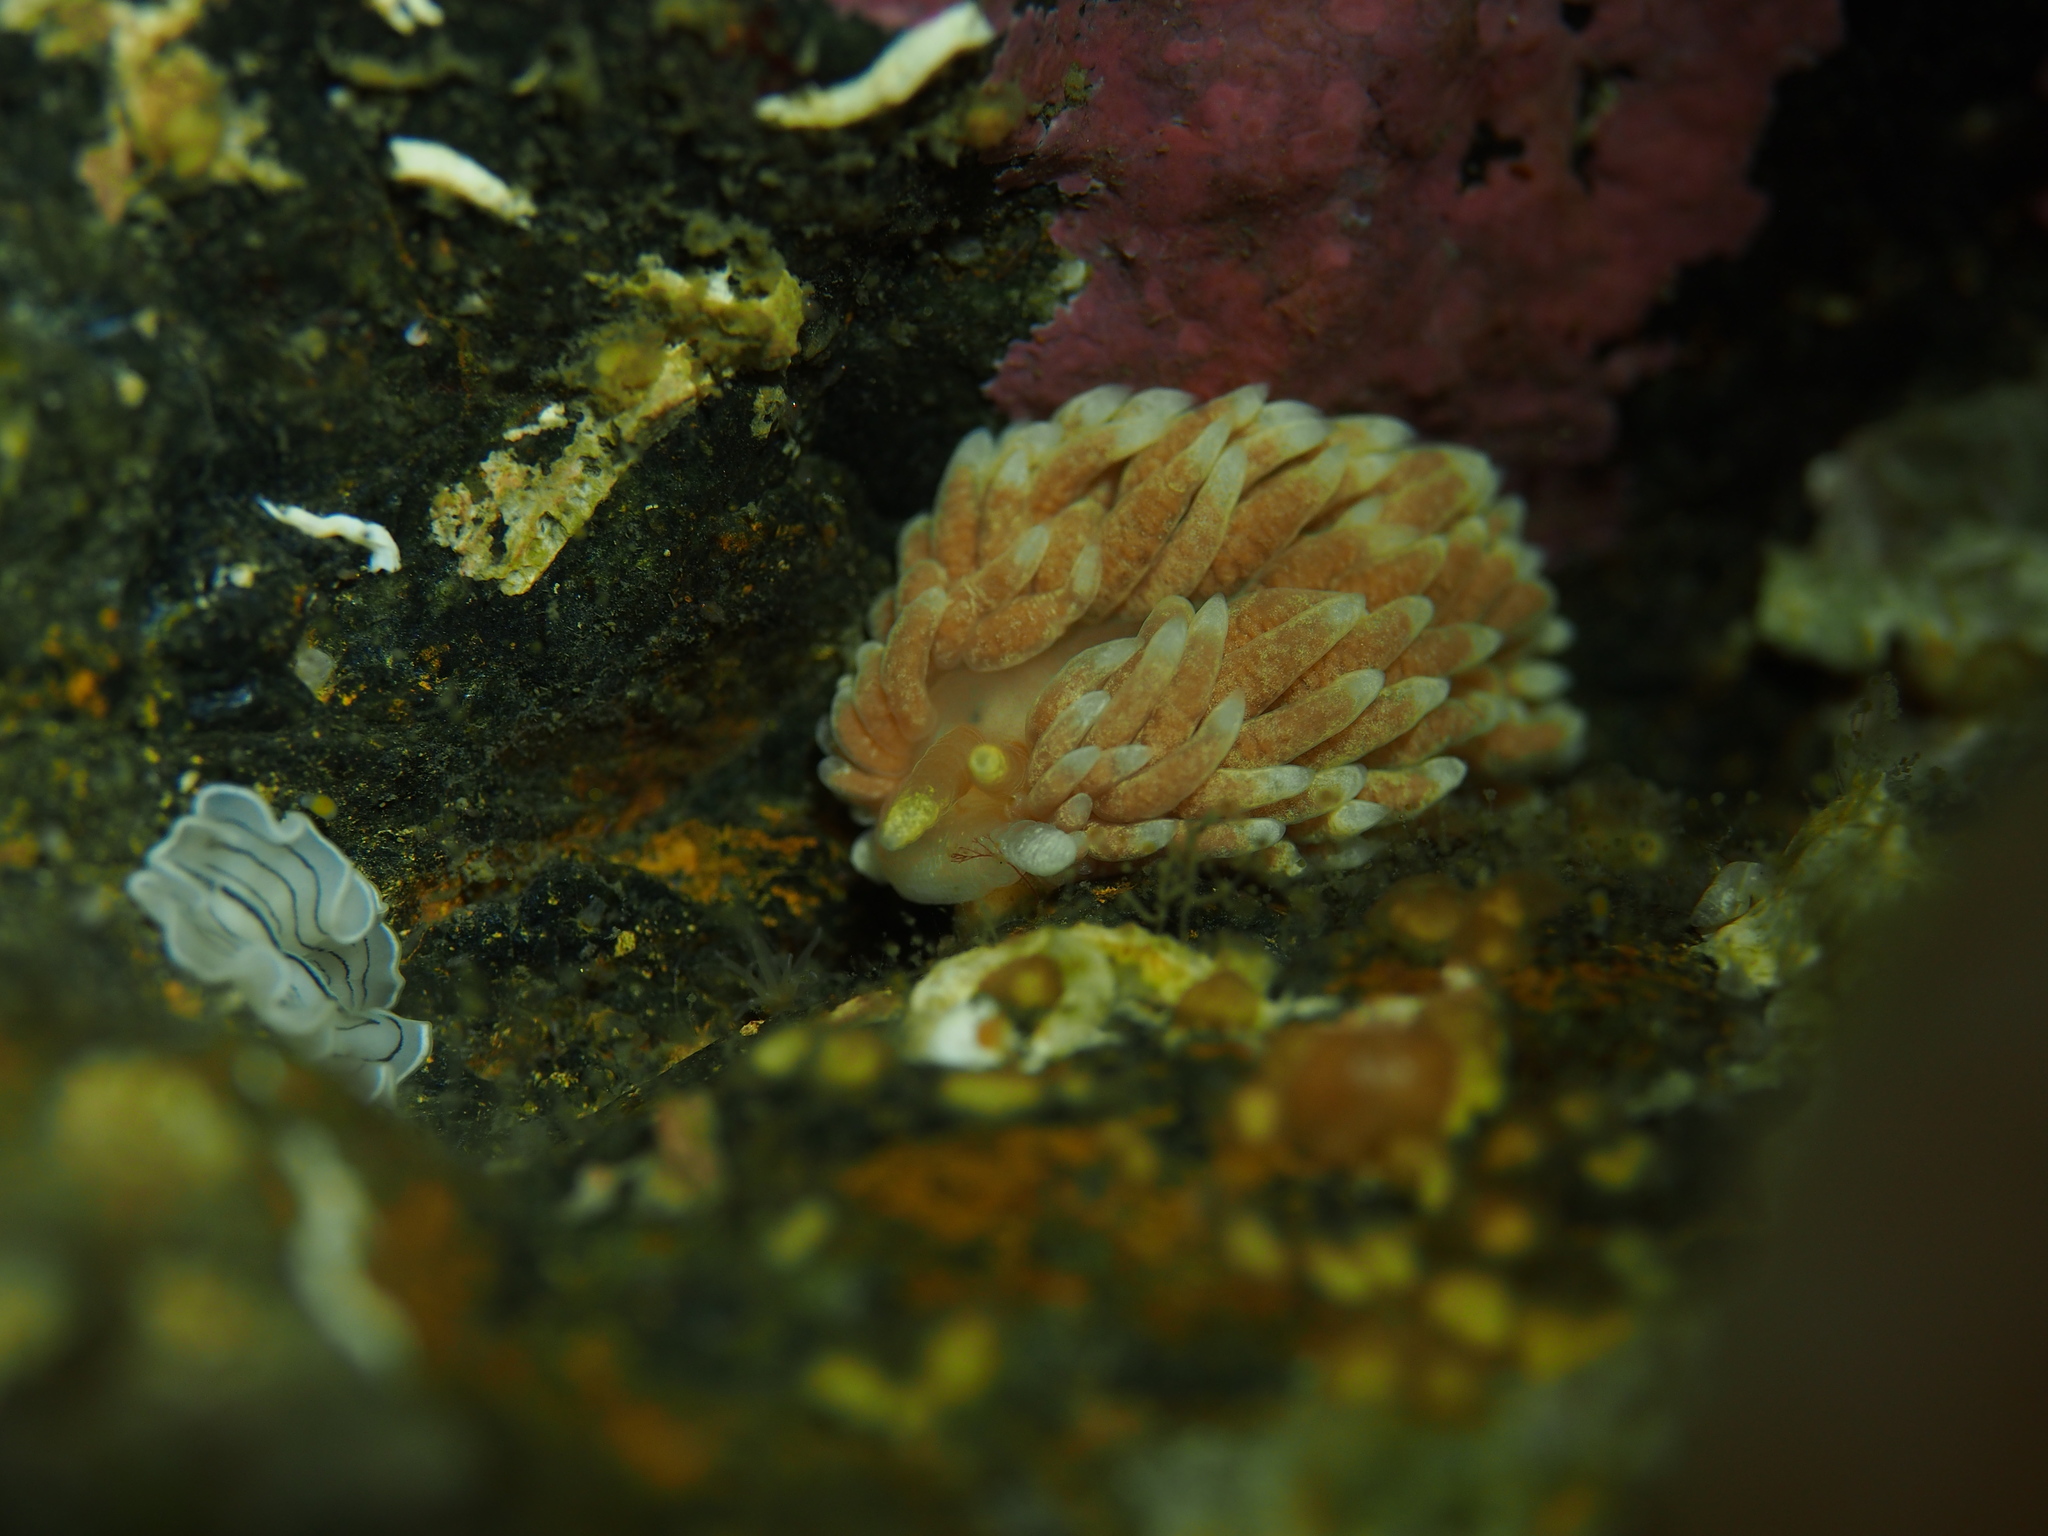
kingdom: Animalia
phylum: Mollusca
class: Gastropoda
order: Nudibranchia
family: Aeolidiidae
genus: Aeolidiella
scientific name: Aeolidiella glauca
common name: Orange-brown aeolid
